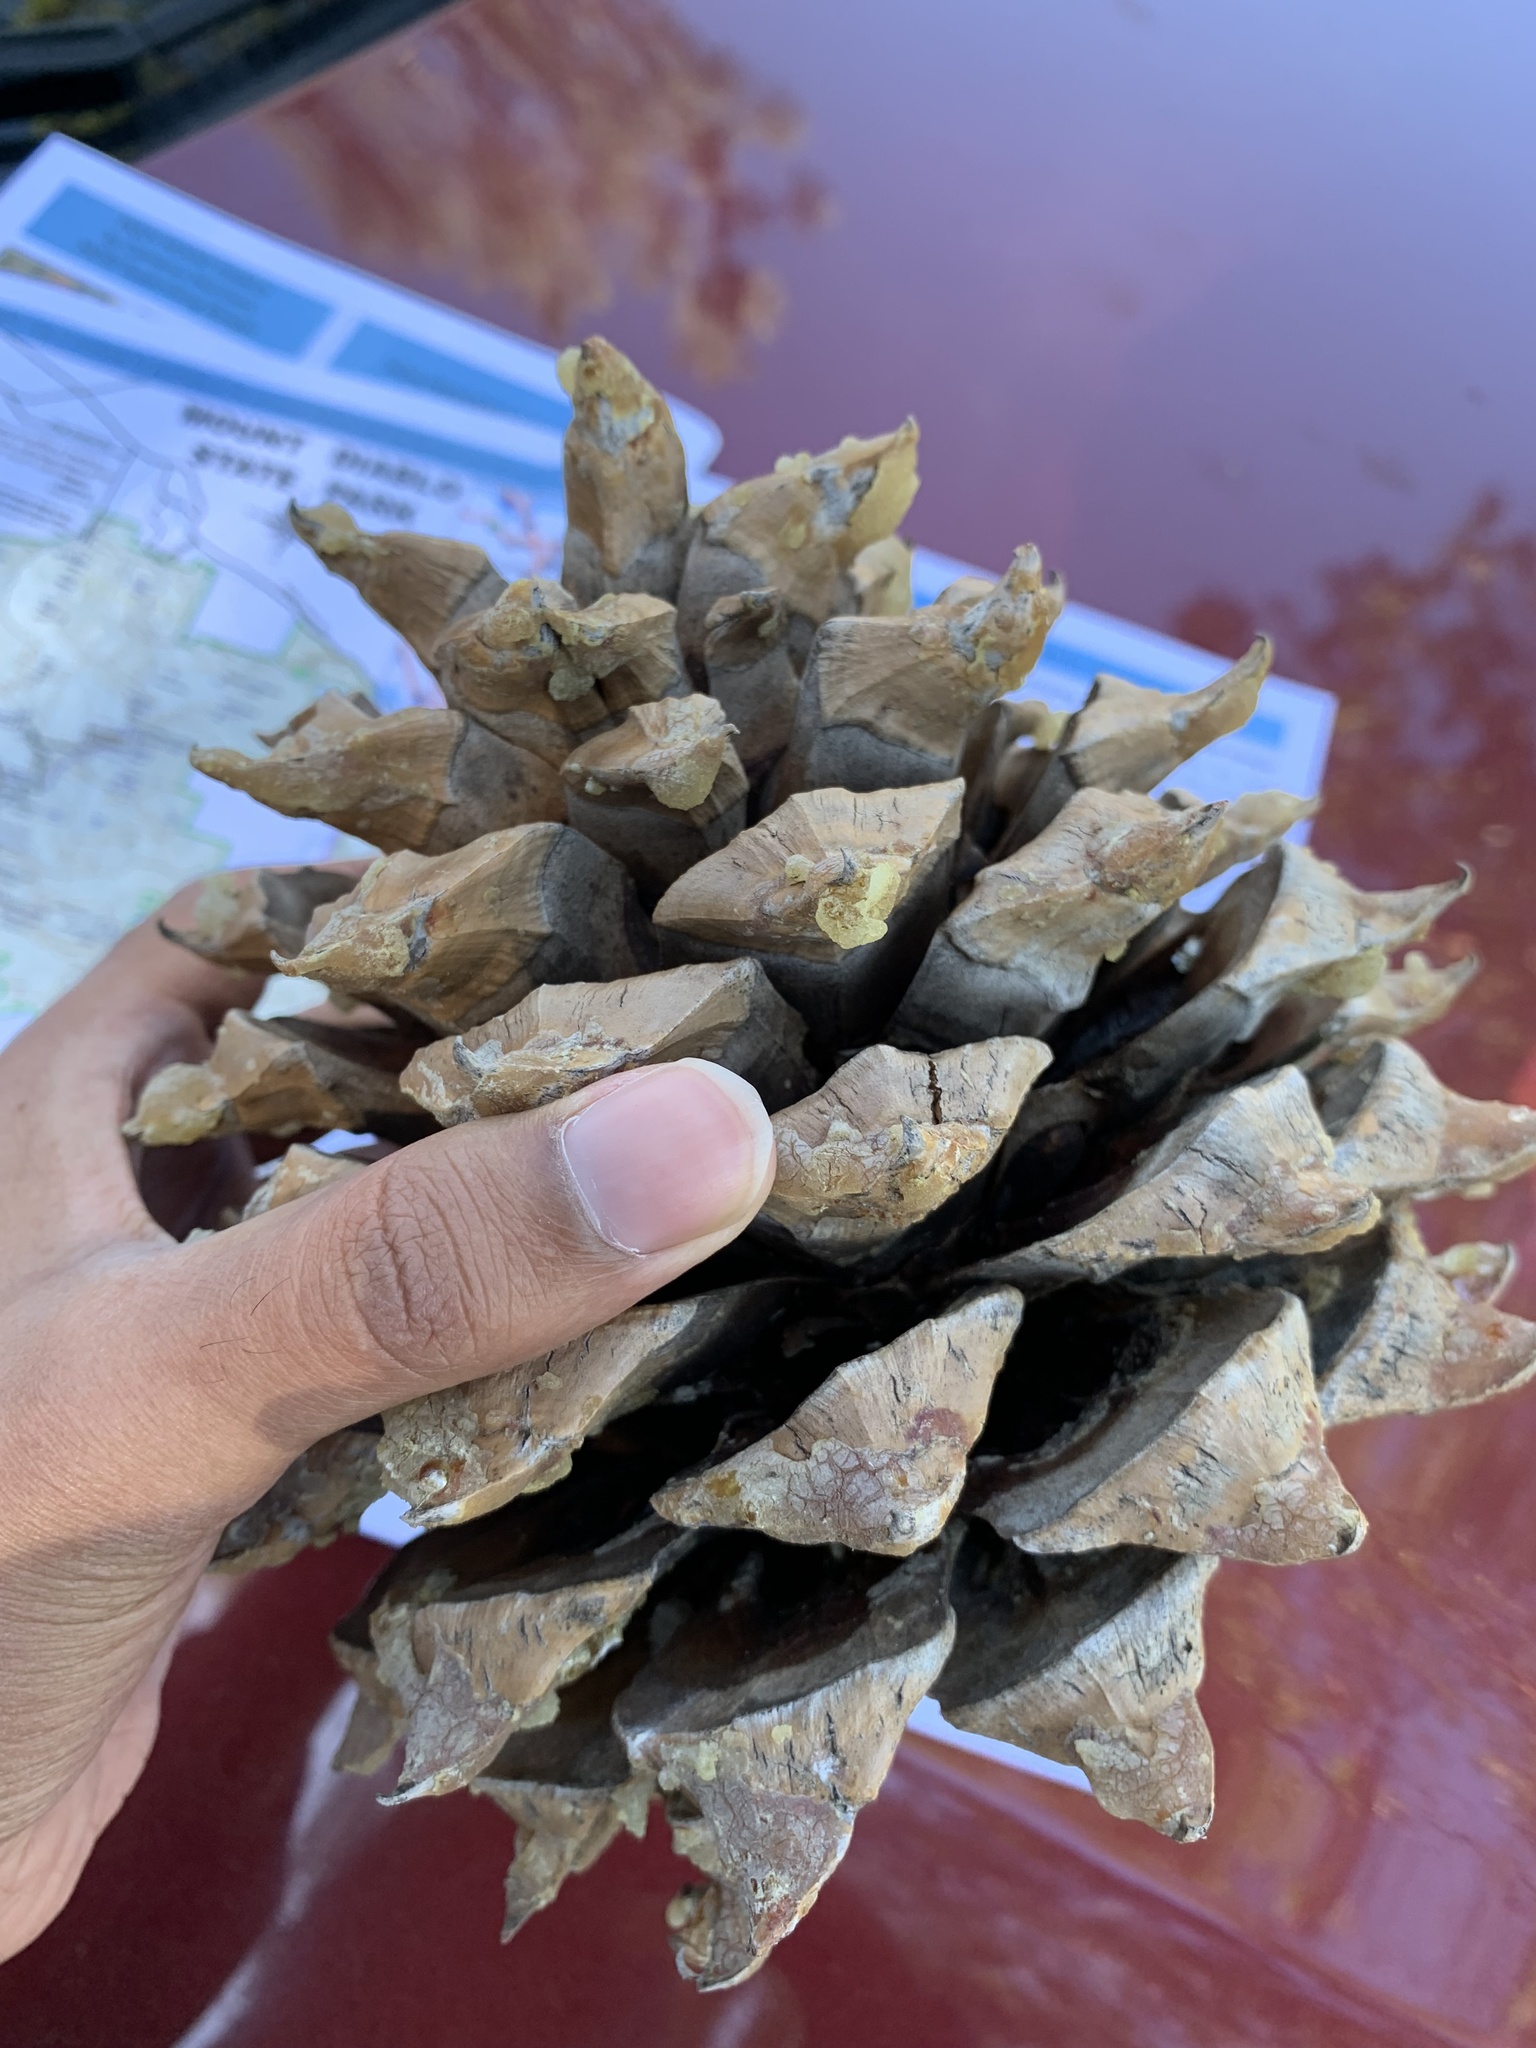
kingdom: Plantae
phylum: Tracheophyta
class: Pinopsida
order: Pinales
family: Pinaceae
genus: Pinus
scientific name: Pinus sabiniana
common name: Bull pine
